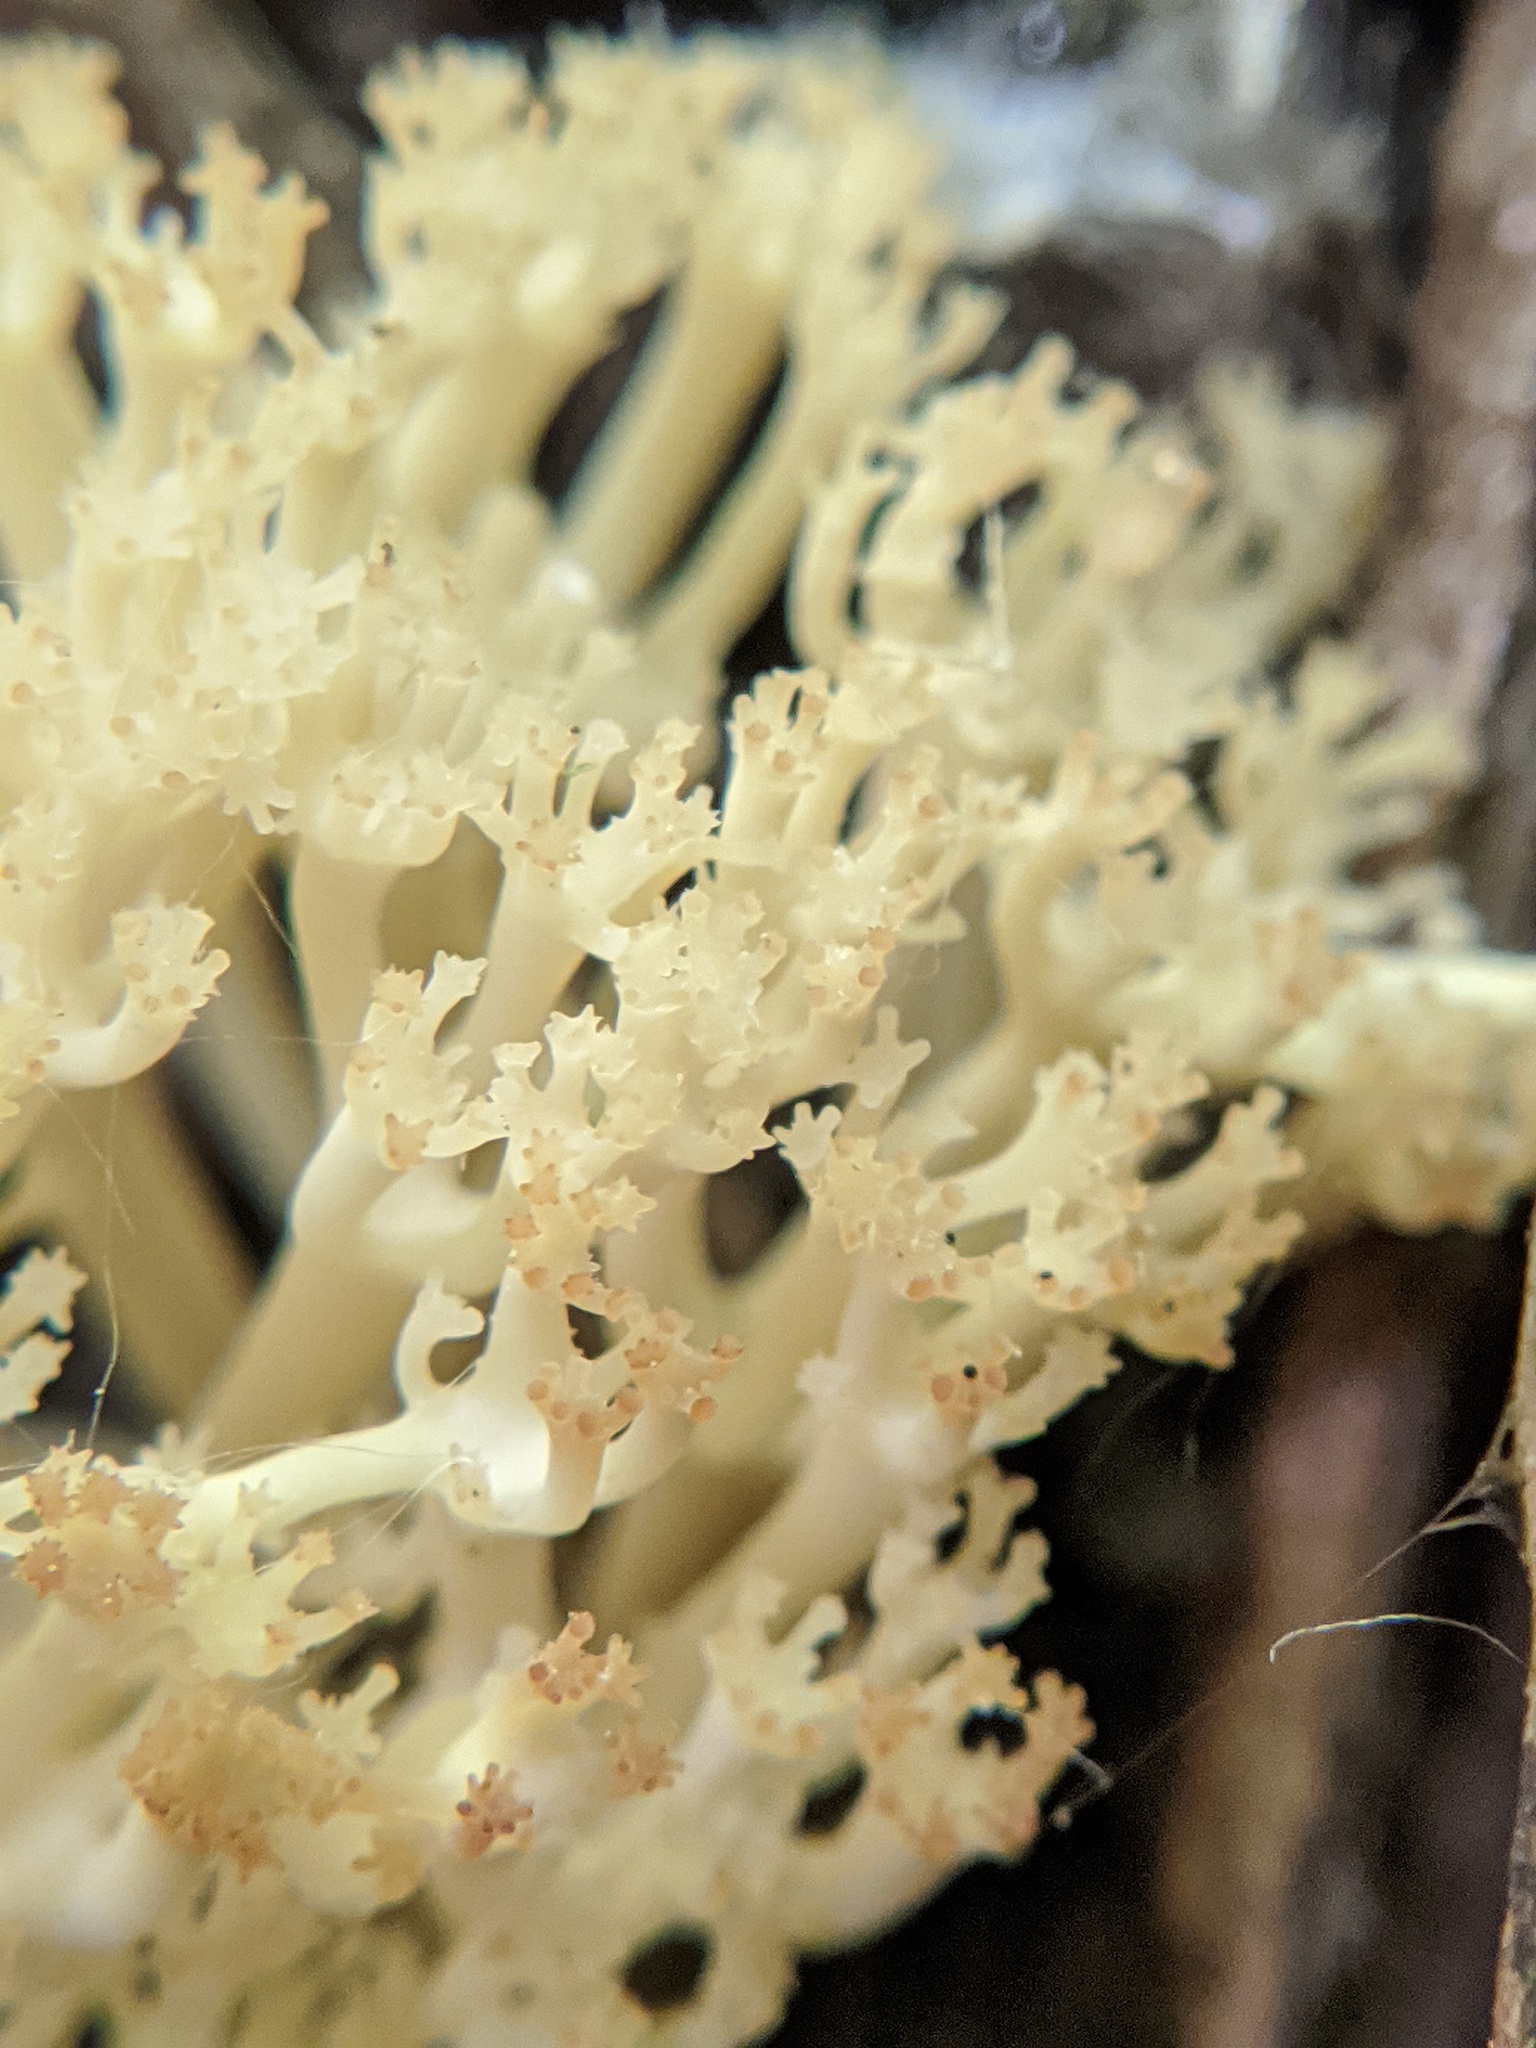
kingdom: Fungi
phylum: Basidiomycota
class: Agaricomycetes
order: Russulales
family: Auriscalpiaceae
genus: Artomyces
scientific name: Artomyces pyxidatus
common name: Crown-tipped coral fungus
